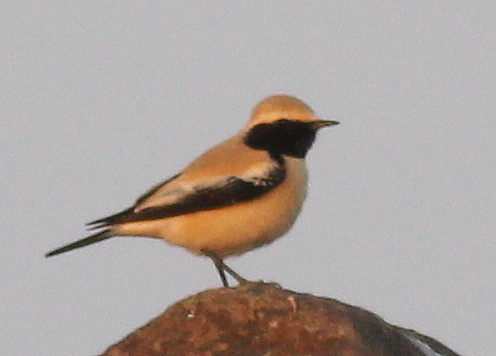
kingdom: Animalia
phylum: Chordata
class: Aves
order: Passeriformes
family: Muscicapidae
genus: Oenanthe
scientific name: Oenanthe deserti
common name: Desert wheatear
